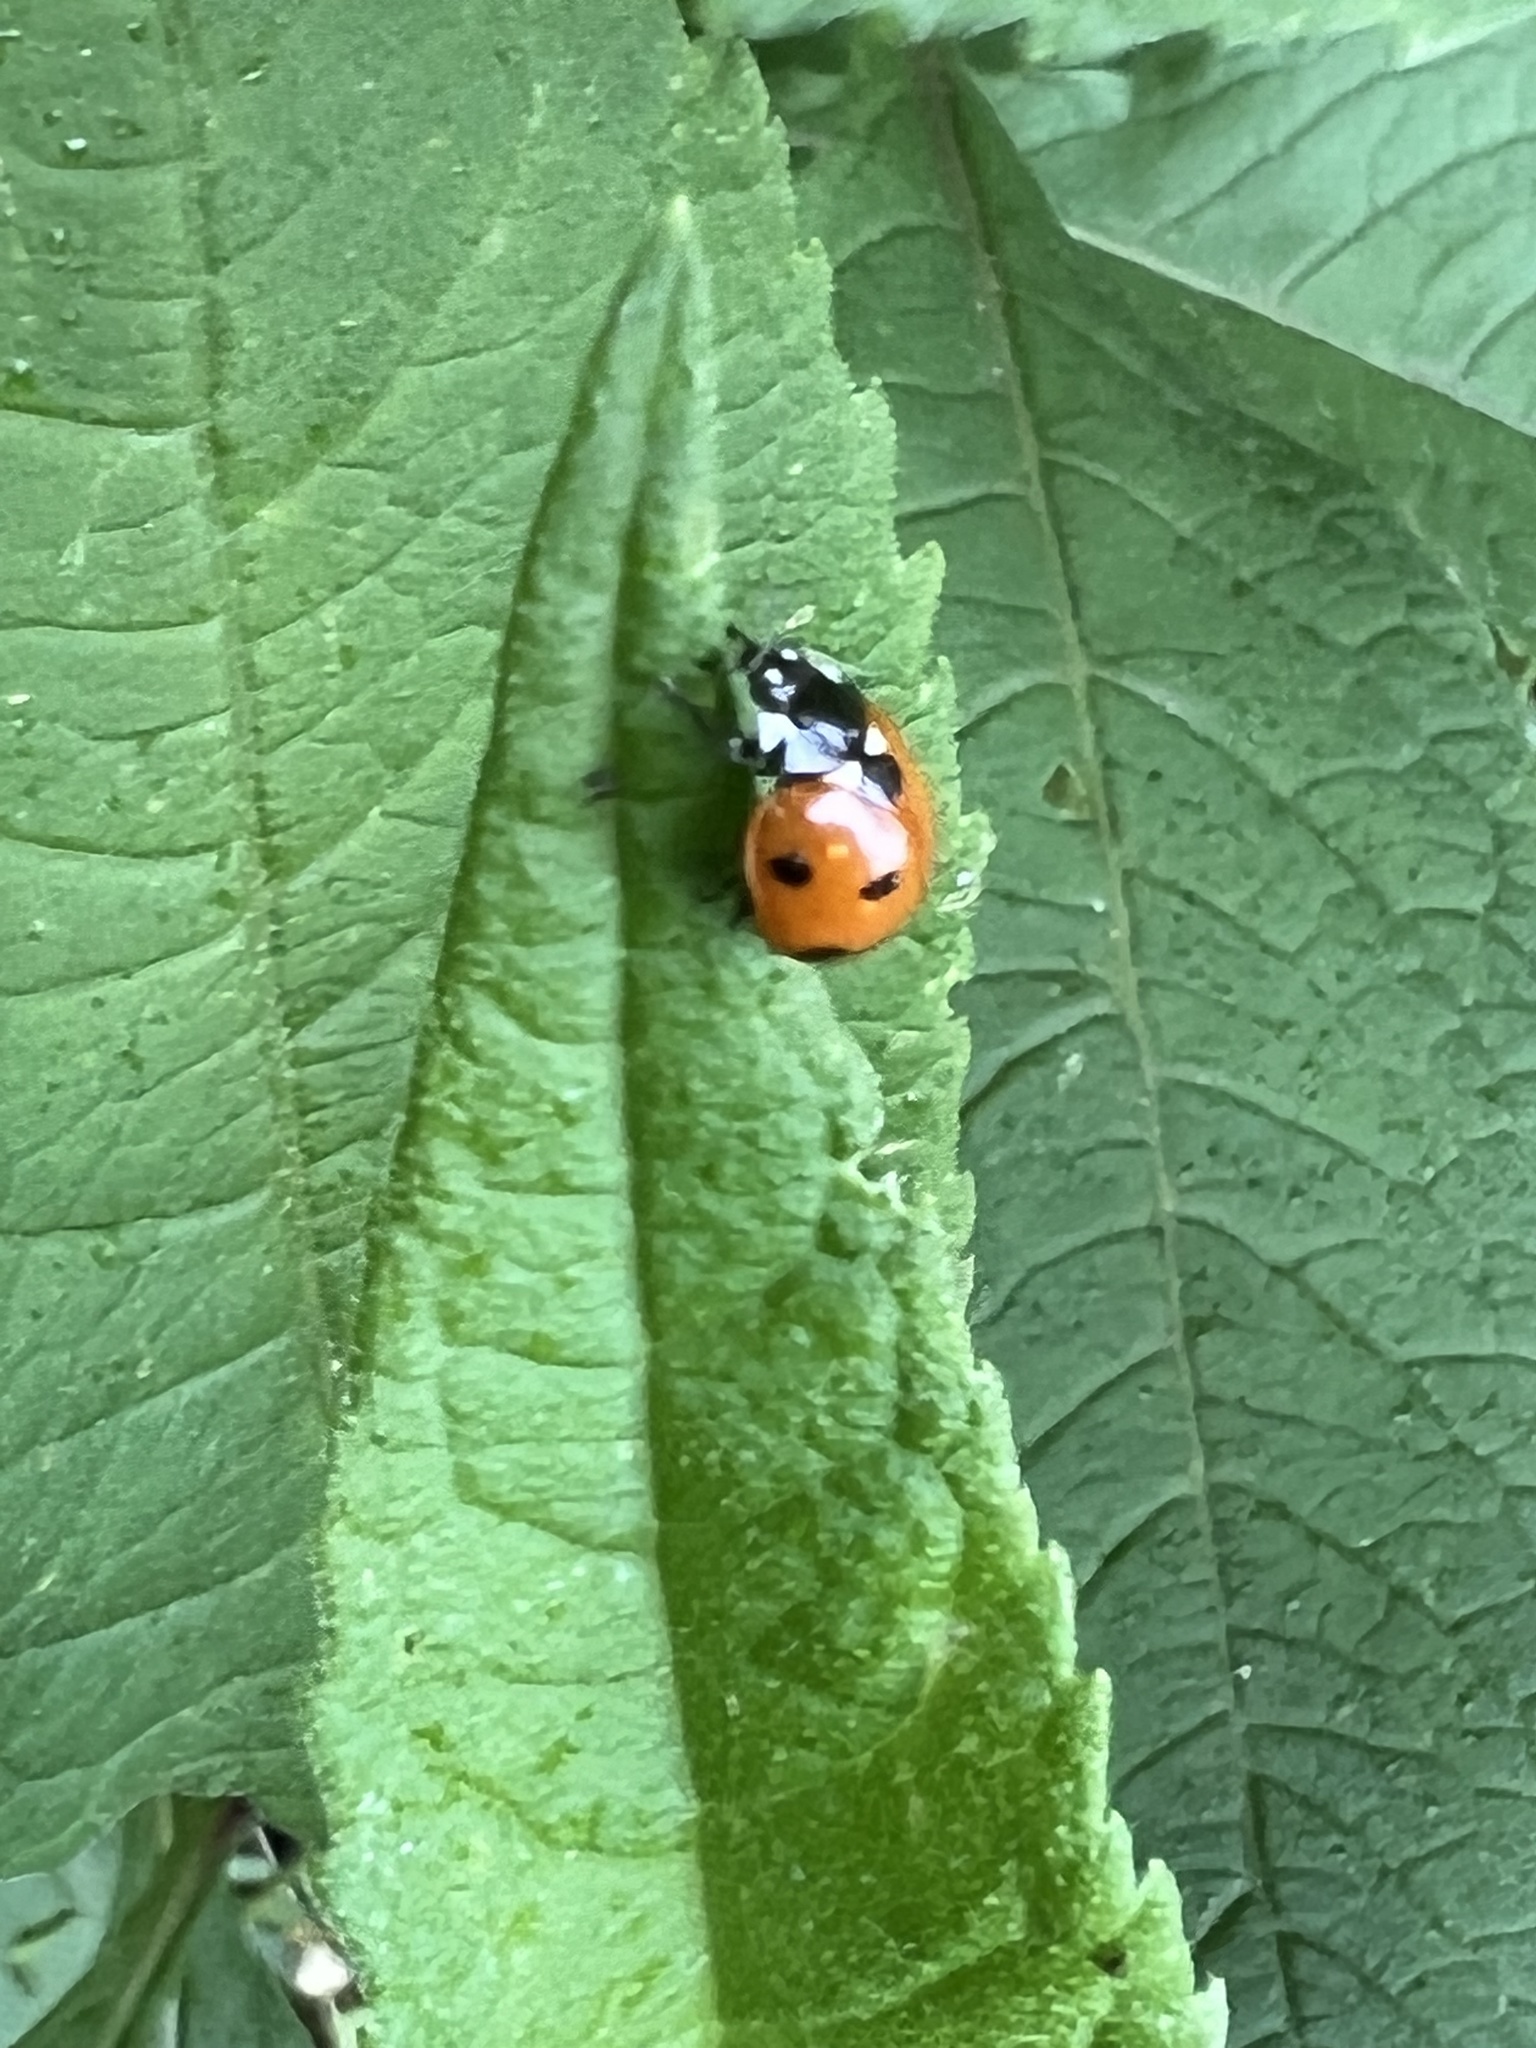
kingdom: Animalia
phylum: Arthropoda
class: Insecta
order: Coleoptera
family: Coccinellidae
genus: Coccinella
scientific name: Coccinella septempunctata
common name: Sevenspotted lady beetle
